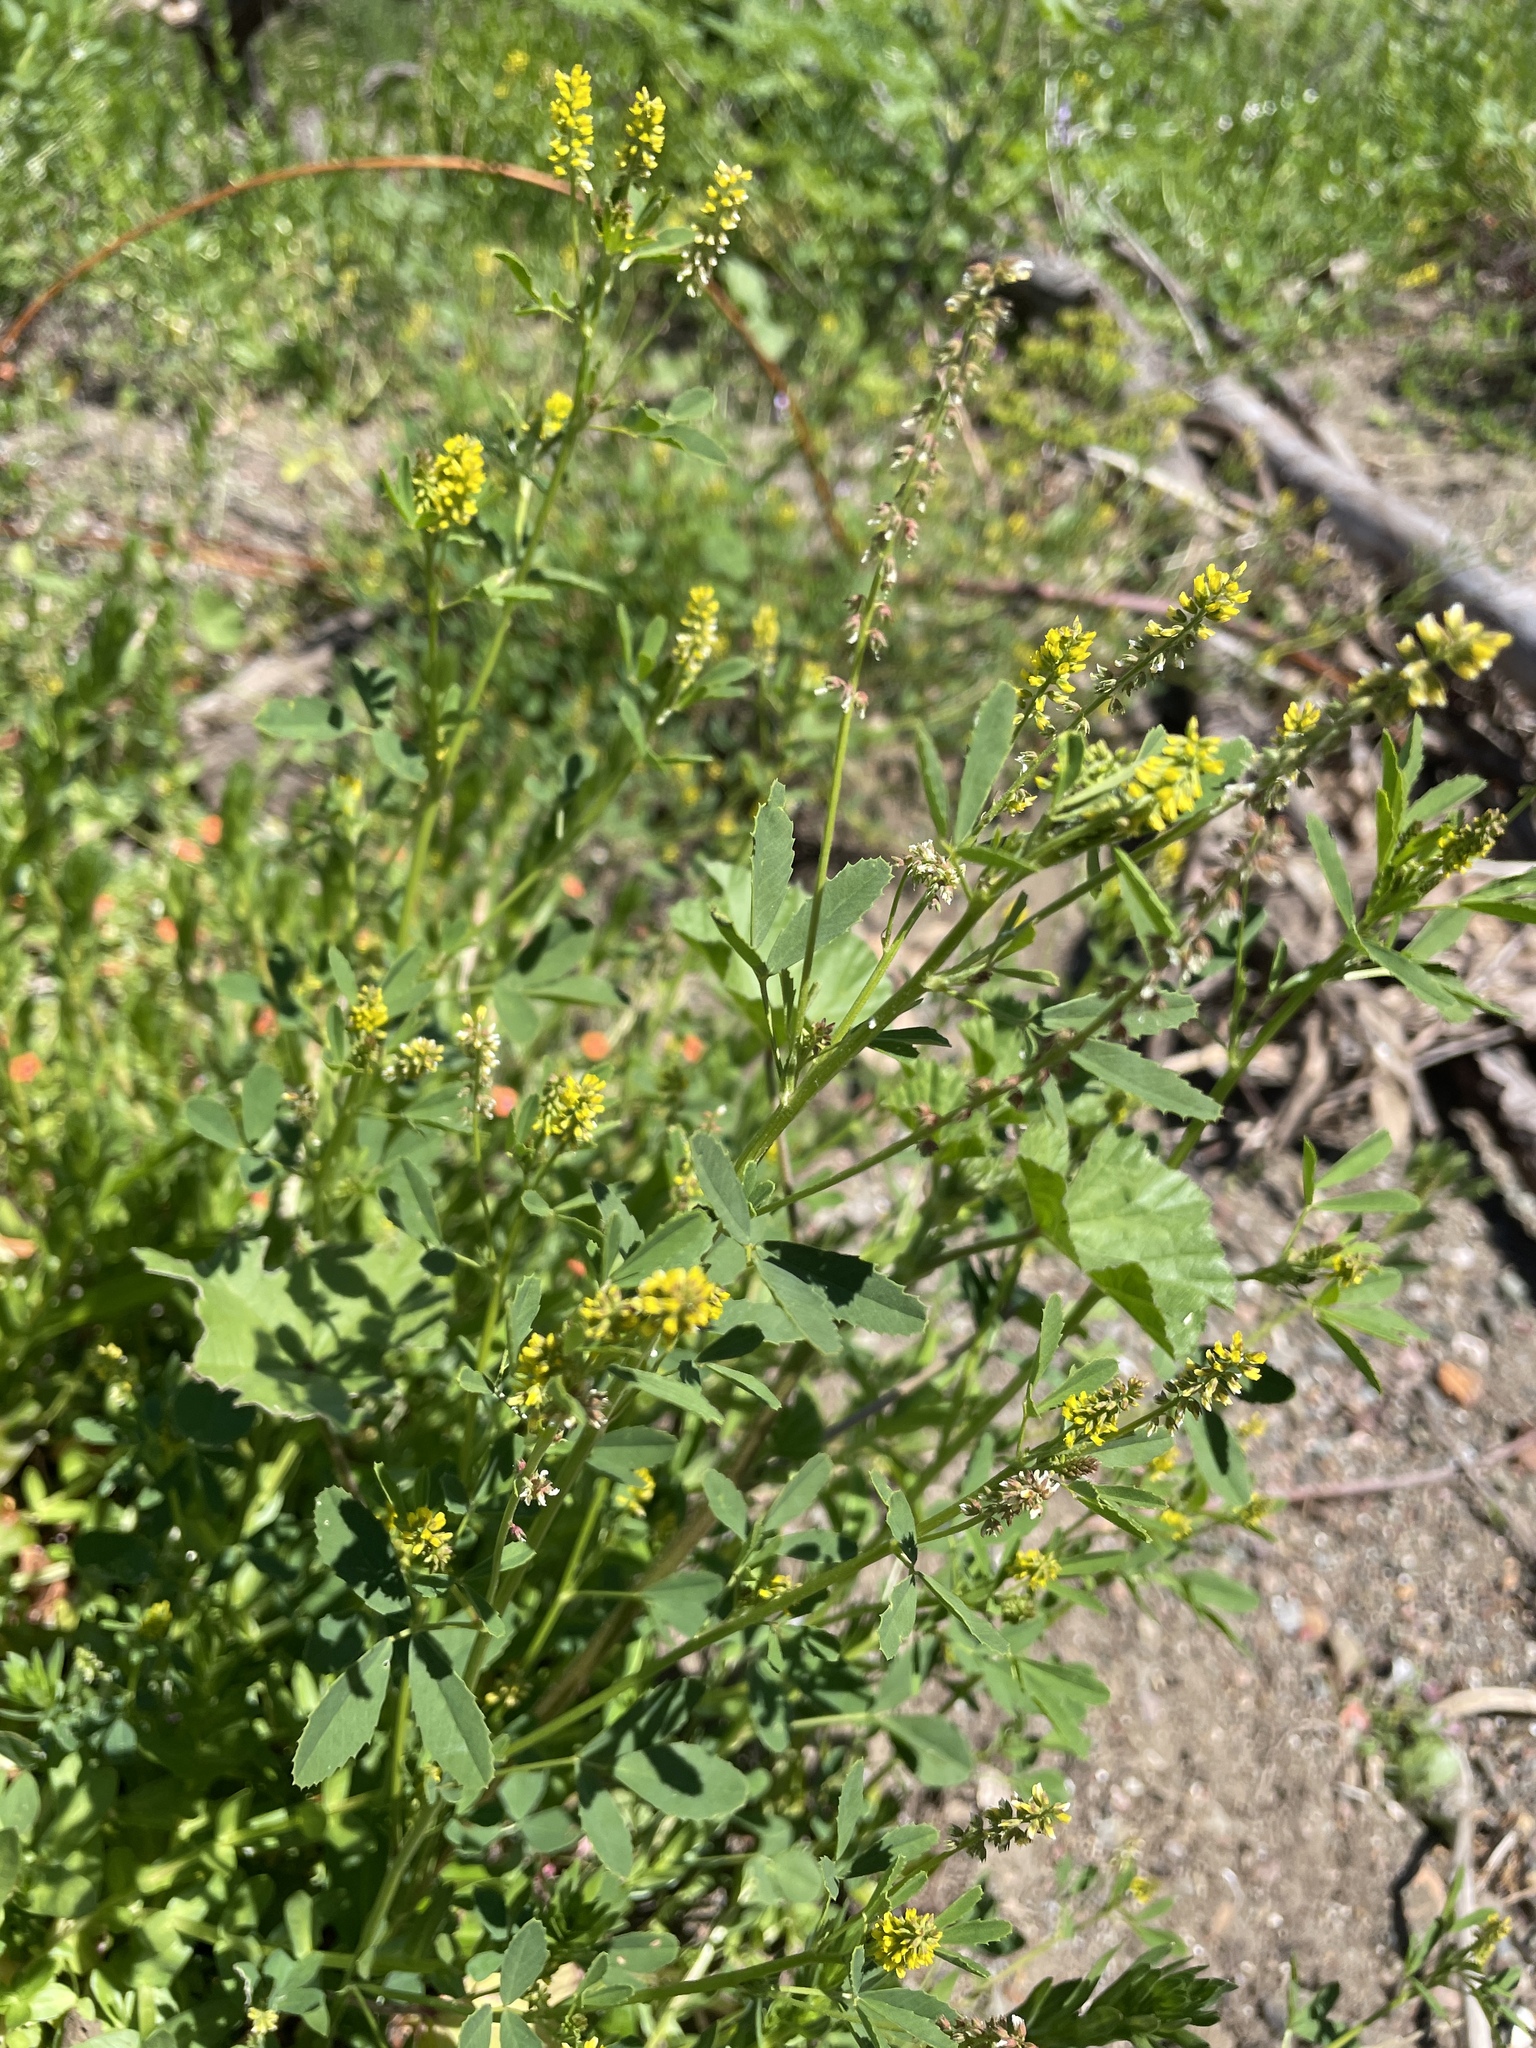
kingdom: Plantae
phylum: Tracheophyta
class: Magnoliopsida
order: Fabales
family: Fabaceae
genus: Melilotus
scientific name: Melilotus indicus
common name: Small melilot
